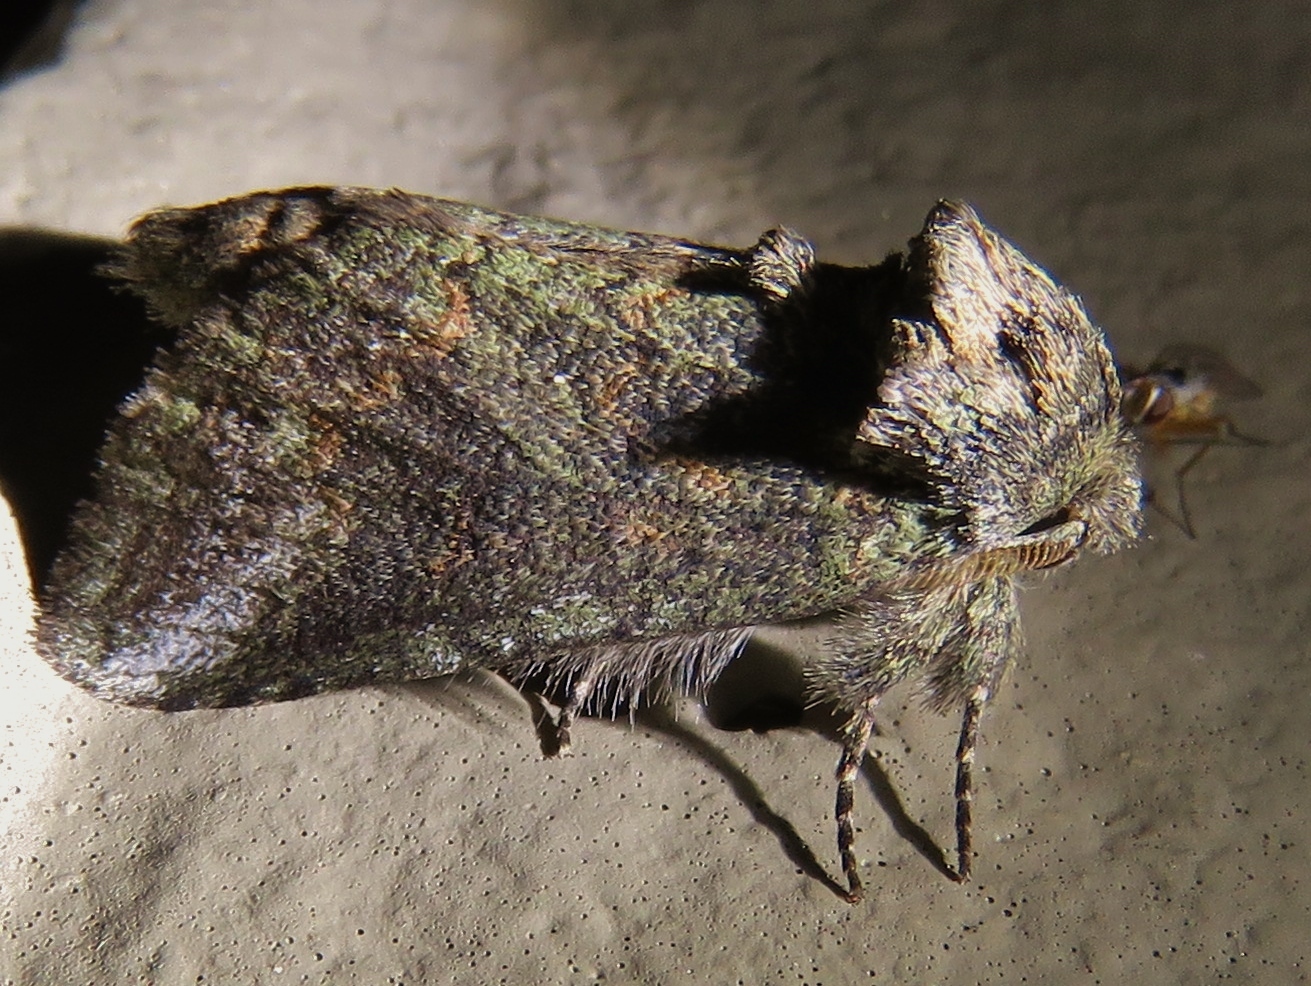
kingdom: Animalia
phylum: Arthropoda
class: Insecta
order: Lepidoptera
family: Notodontidae
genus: Rifargia
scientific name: Rifargia
